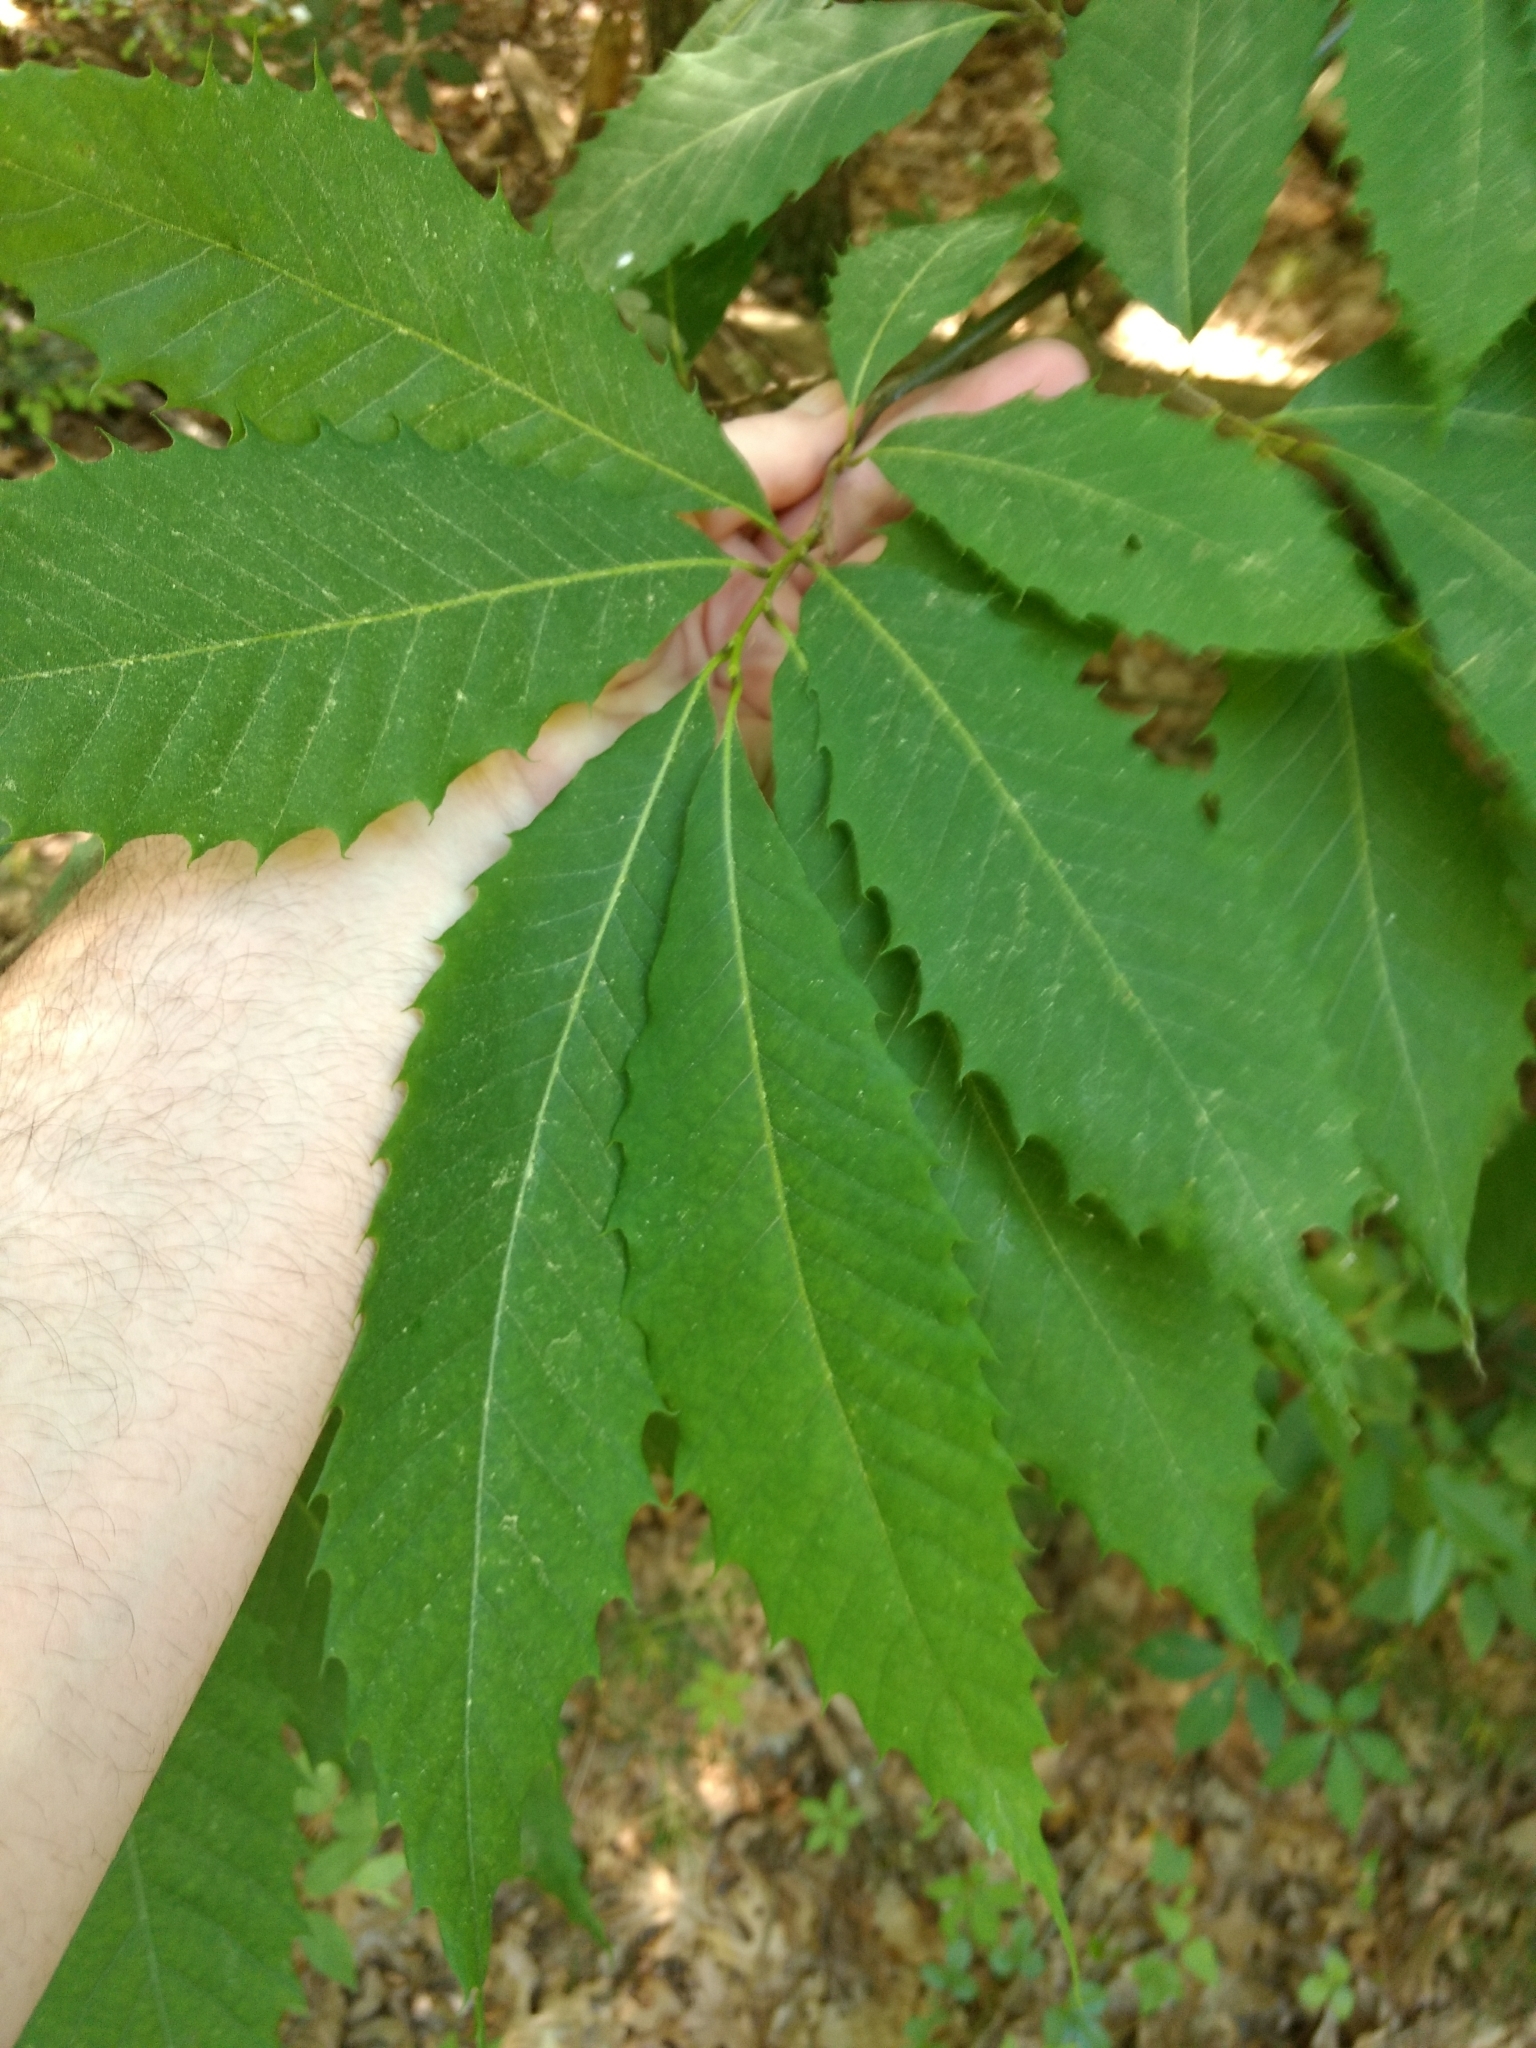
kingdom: Plantae
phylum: Tracheophyta
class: Magnoliopsida
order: Fagales
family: Fagaceae
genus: Castanea
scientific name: Castanea dentata
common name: American chestnut
